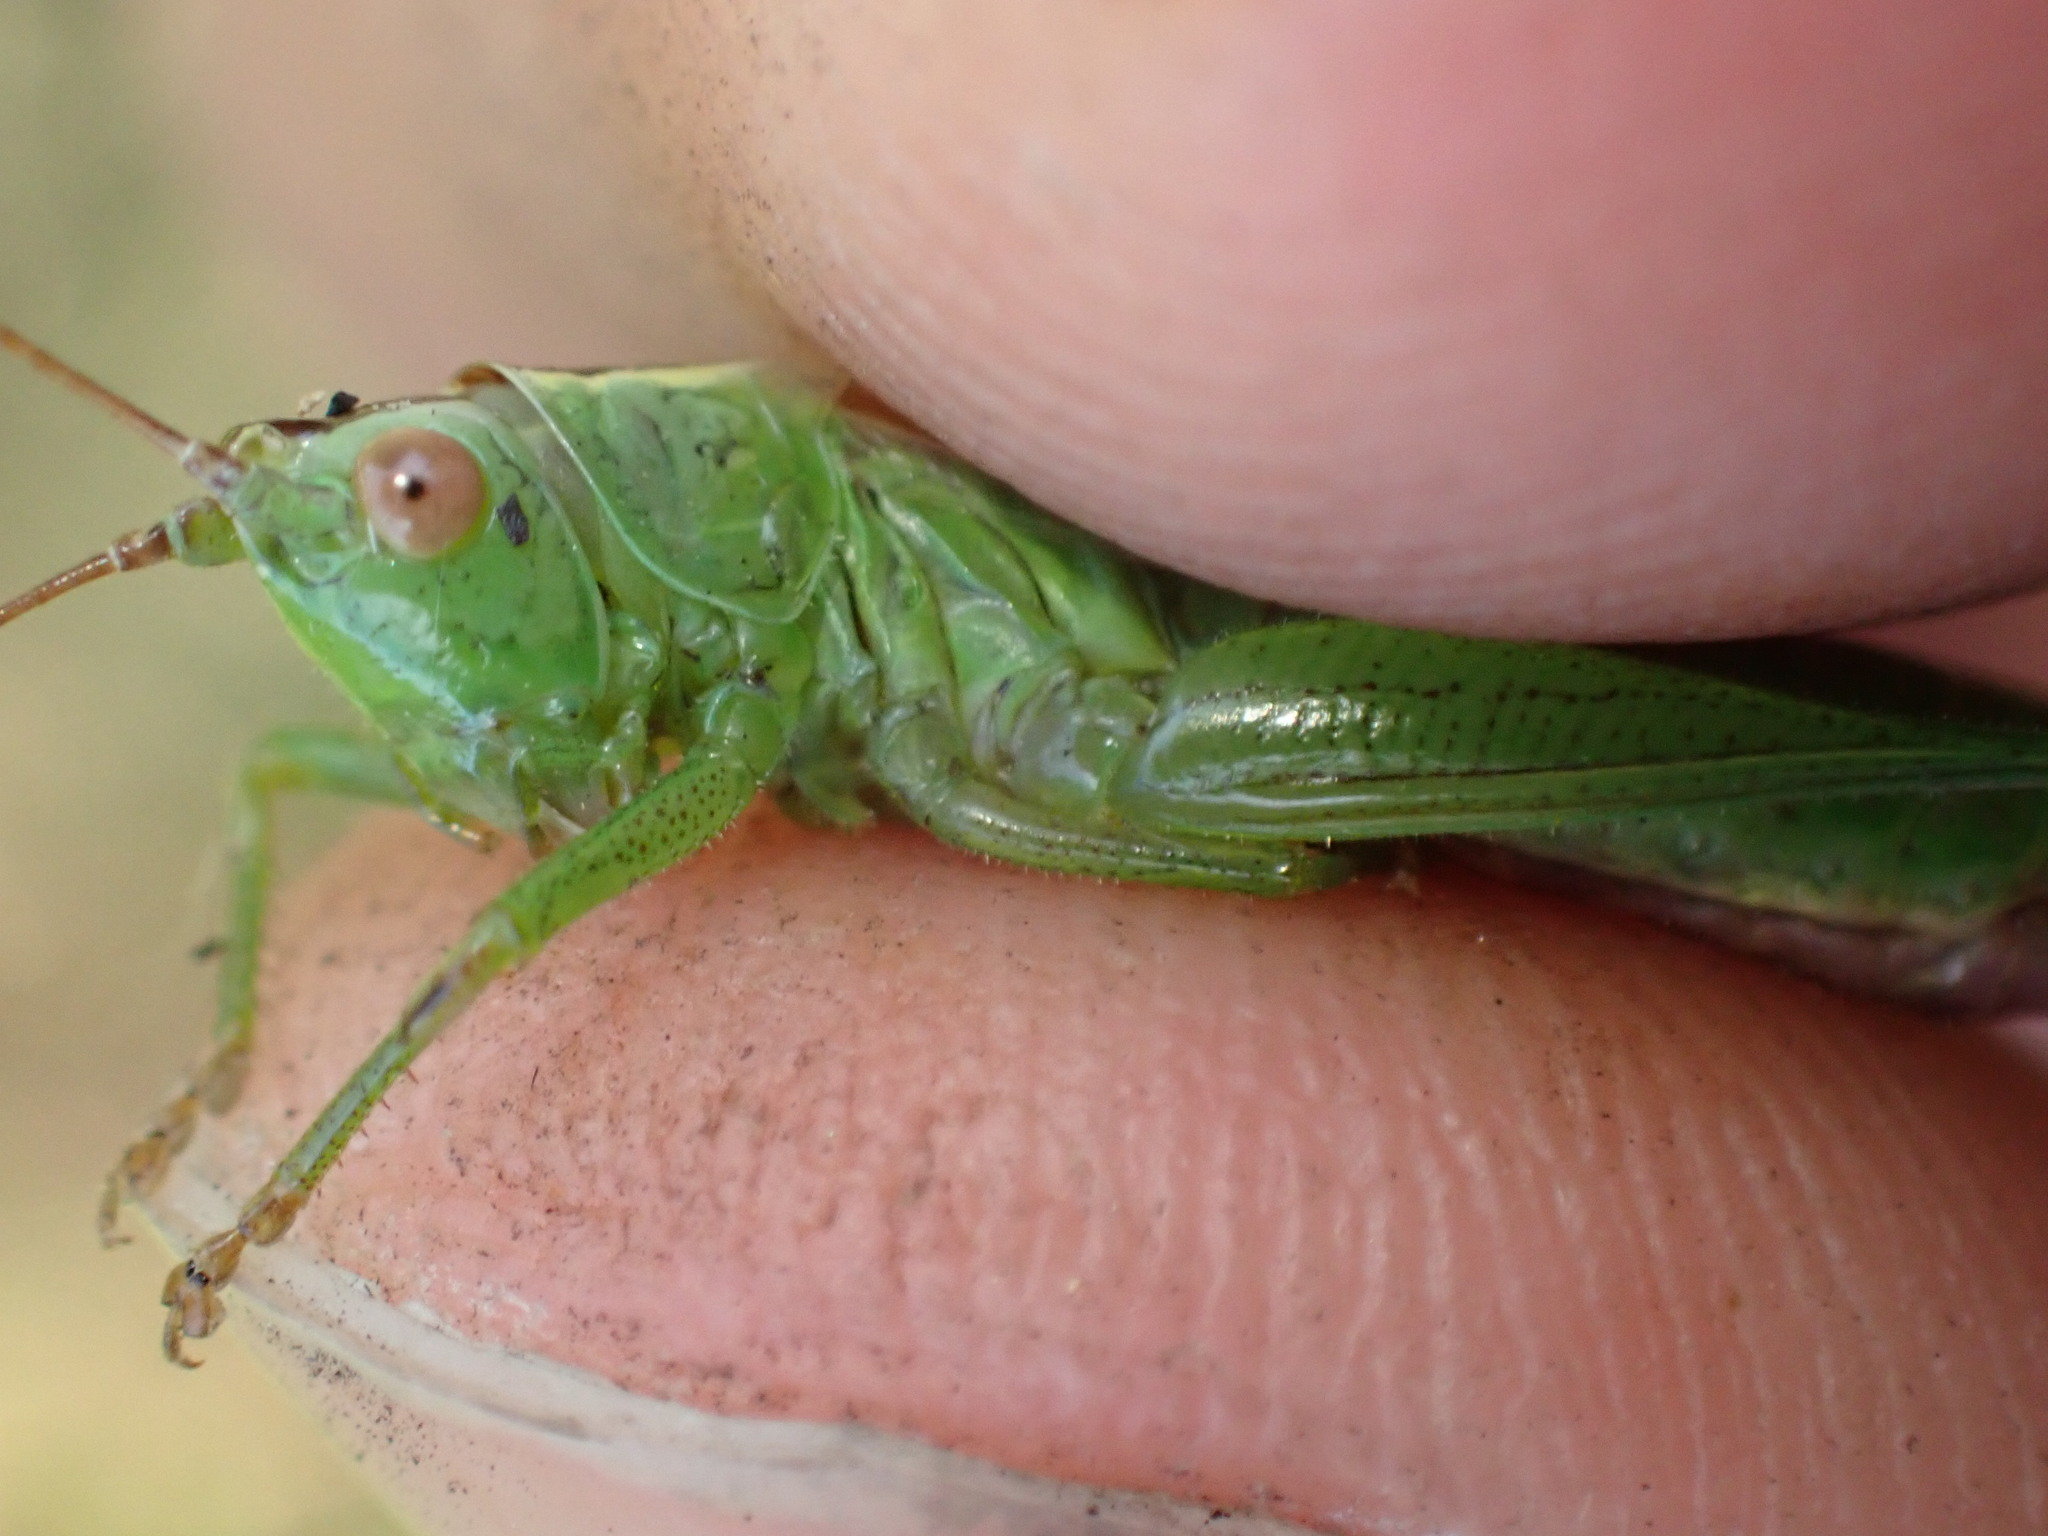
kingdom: Animalia
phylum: Arthropoda
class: Insecta
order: Orthoptera
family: Tettigoniidae
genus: Conocephalus
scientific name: Conocephalus fuscus
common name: Long-winged conehead
